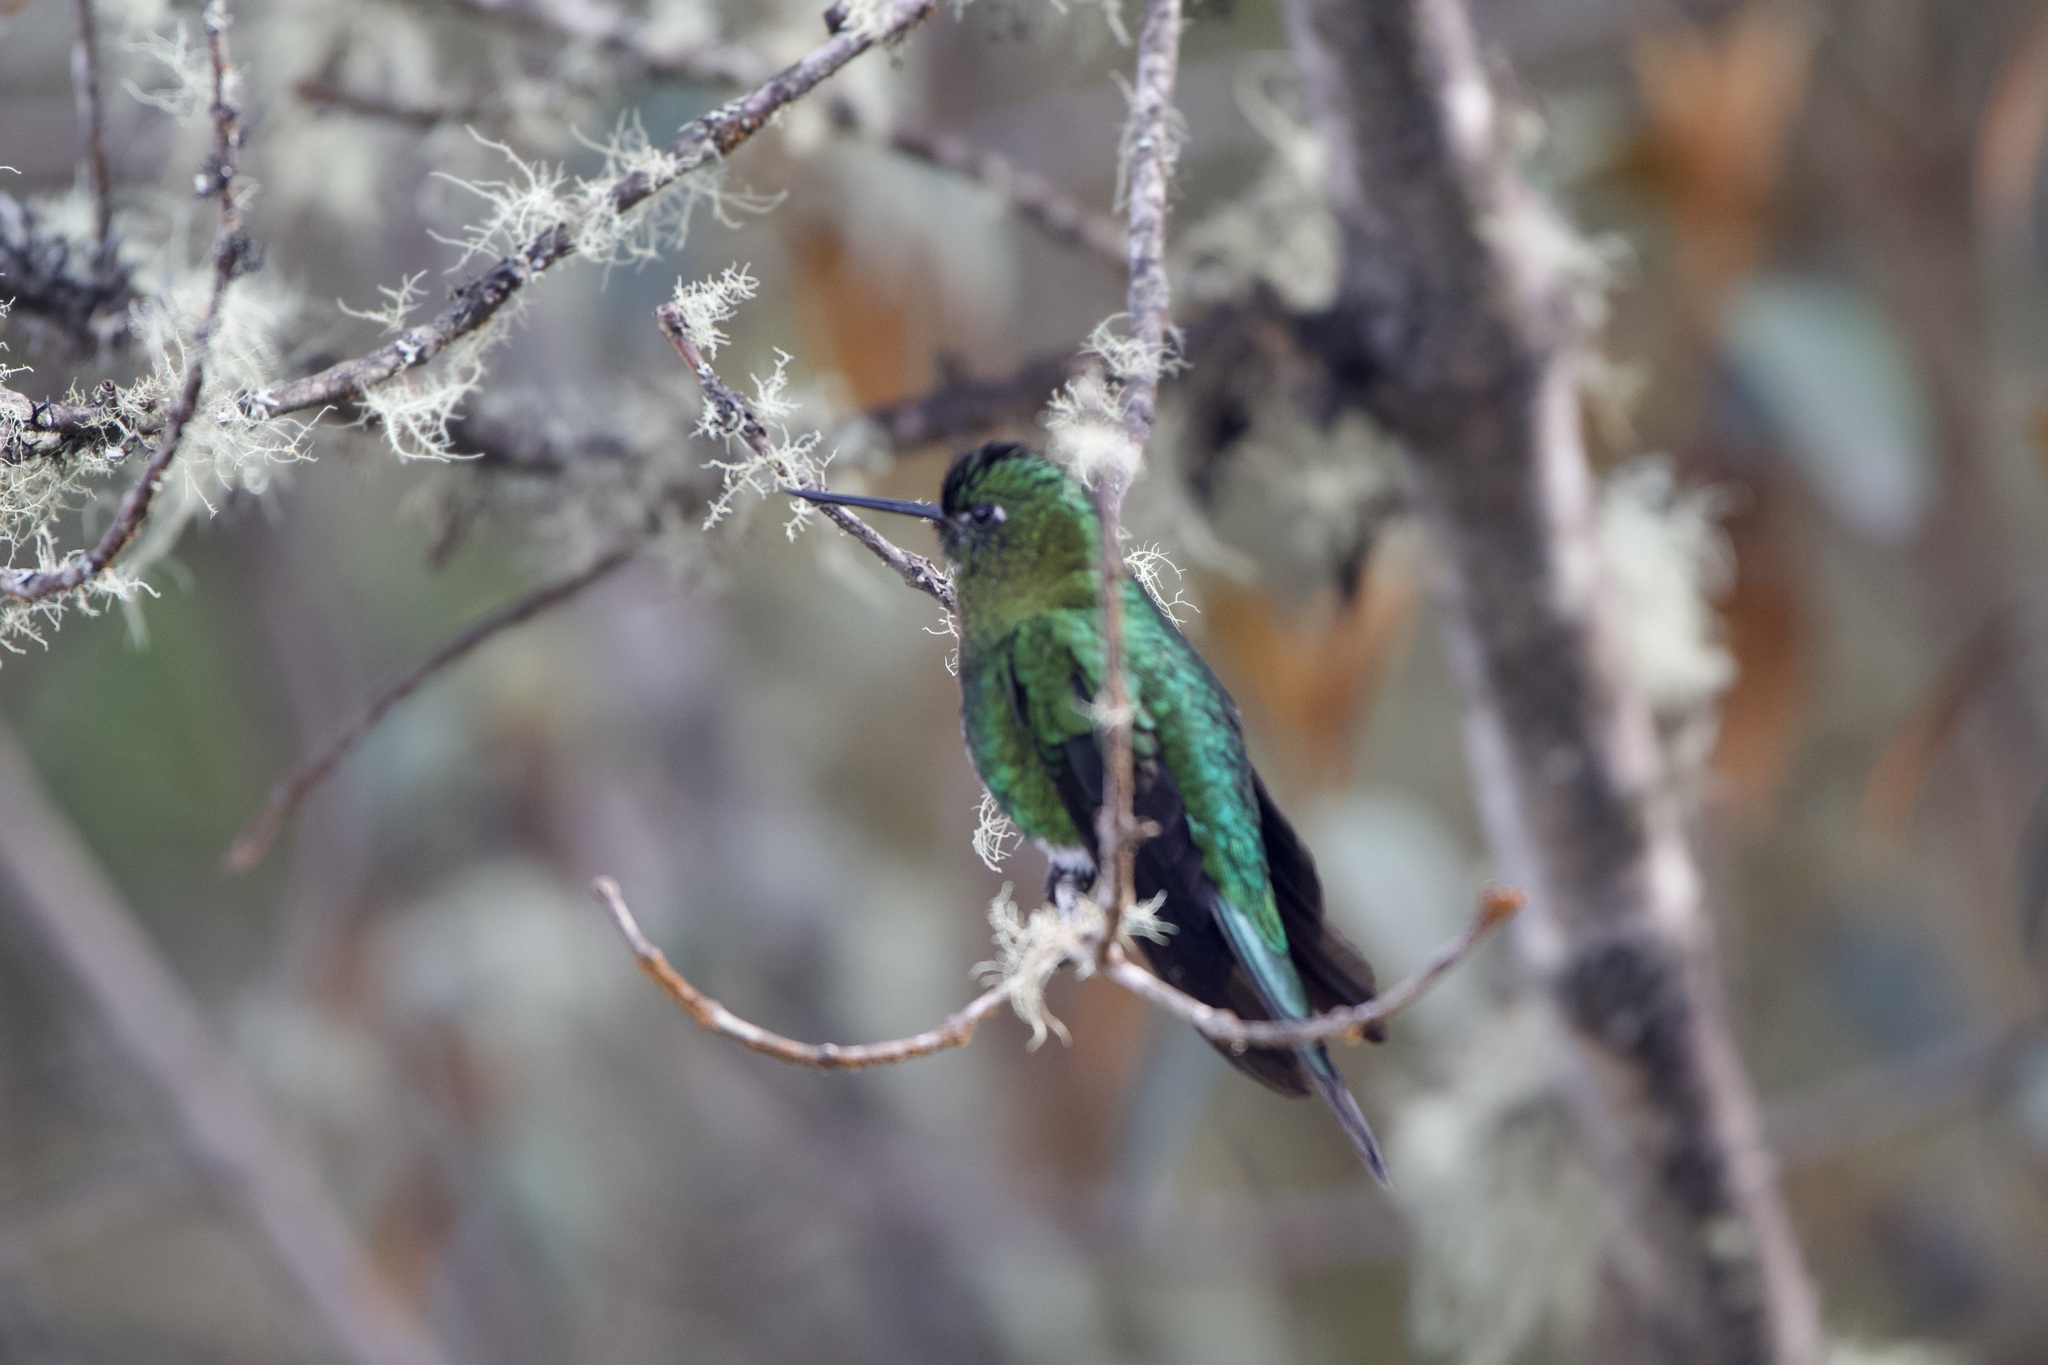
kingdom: Animalia
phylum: Chordata
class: Aves
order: Apodiformes
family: Trochilidae
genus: Eriocnemis
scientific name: Eriocnemis mosquera
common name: Golden-breasted puffleg
